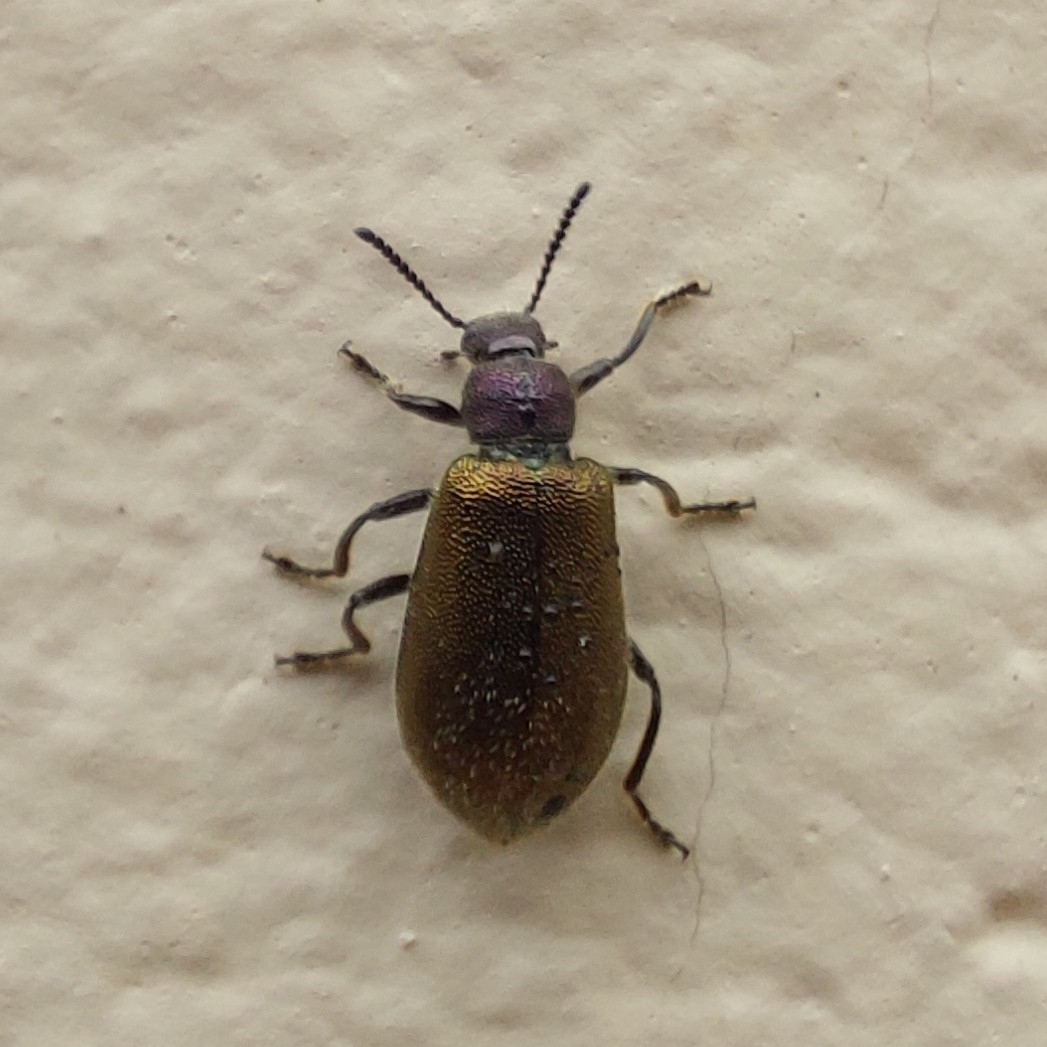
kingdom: Animalia
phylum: Arthropoda
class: Insecta
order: Coleoptera
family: Tenebrionidae
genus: Lagria
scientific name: Lagria villosa
